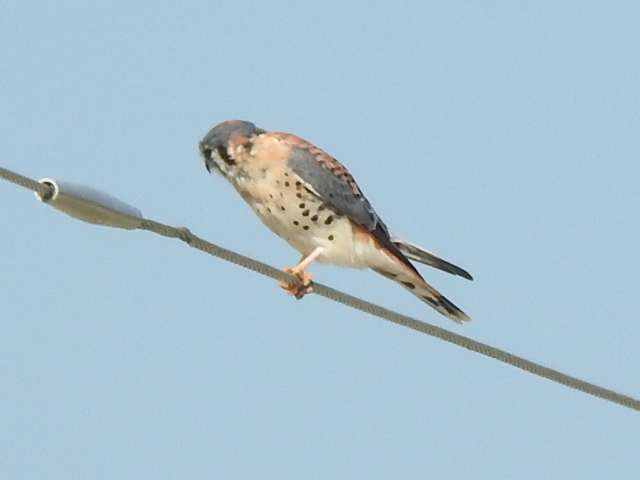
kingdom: Animalia
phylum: Chordata
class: Aves
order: Falconiformes
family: Falconidae
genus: Falco
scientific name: Falco sparverius
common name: American kestrel
